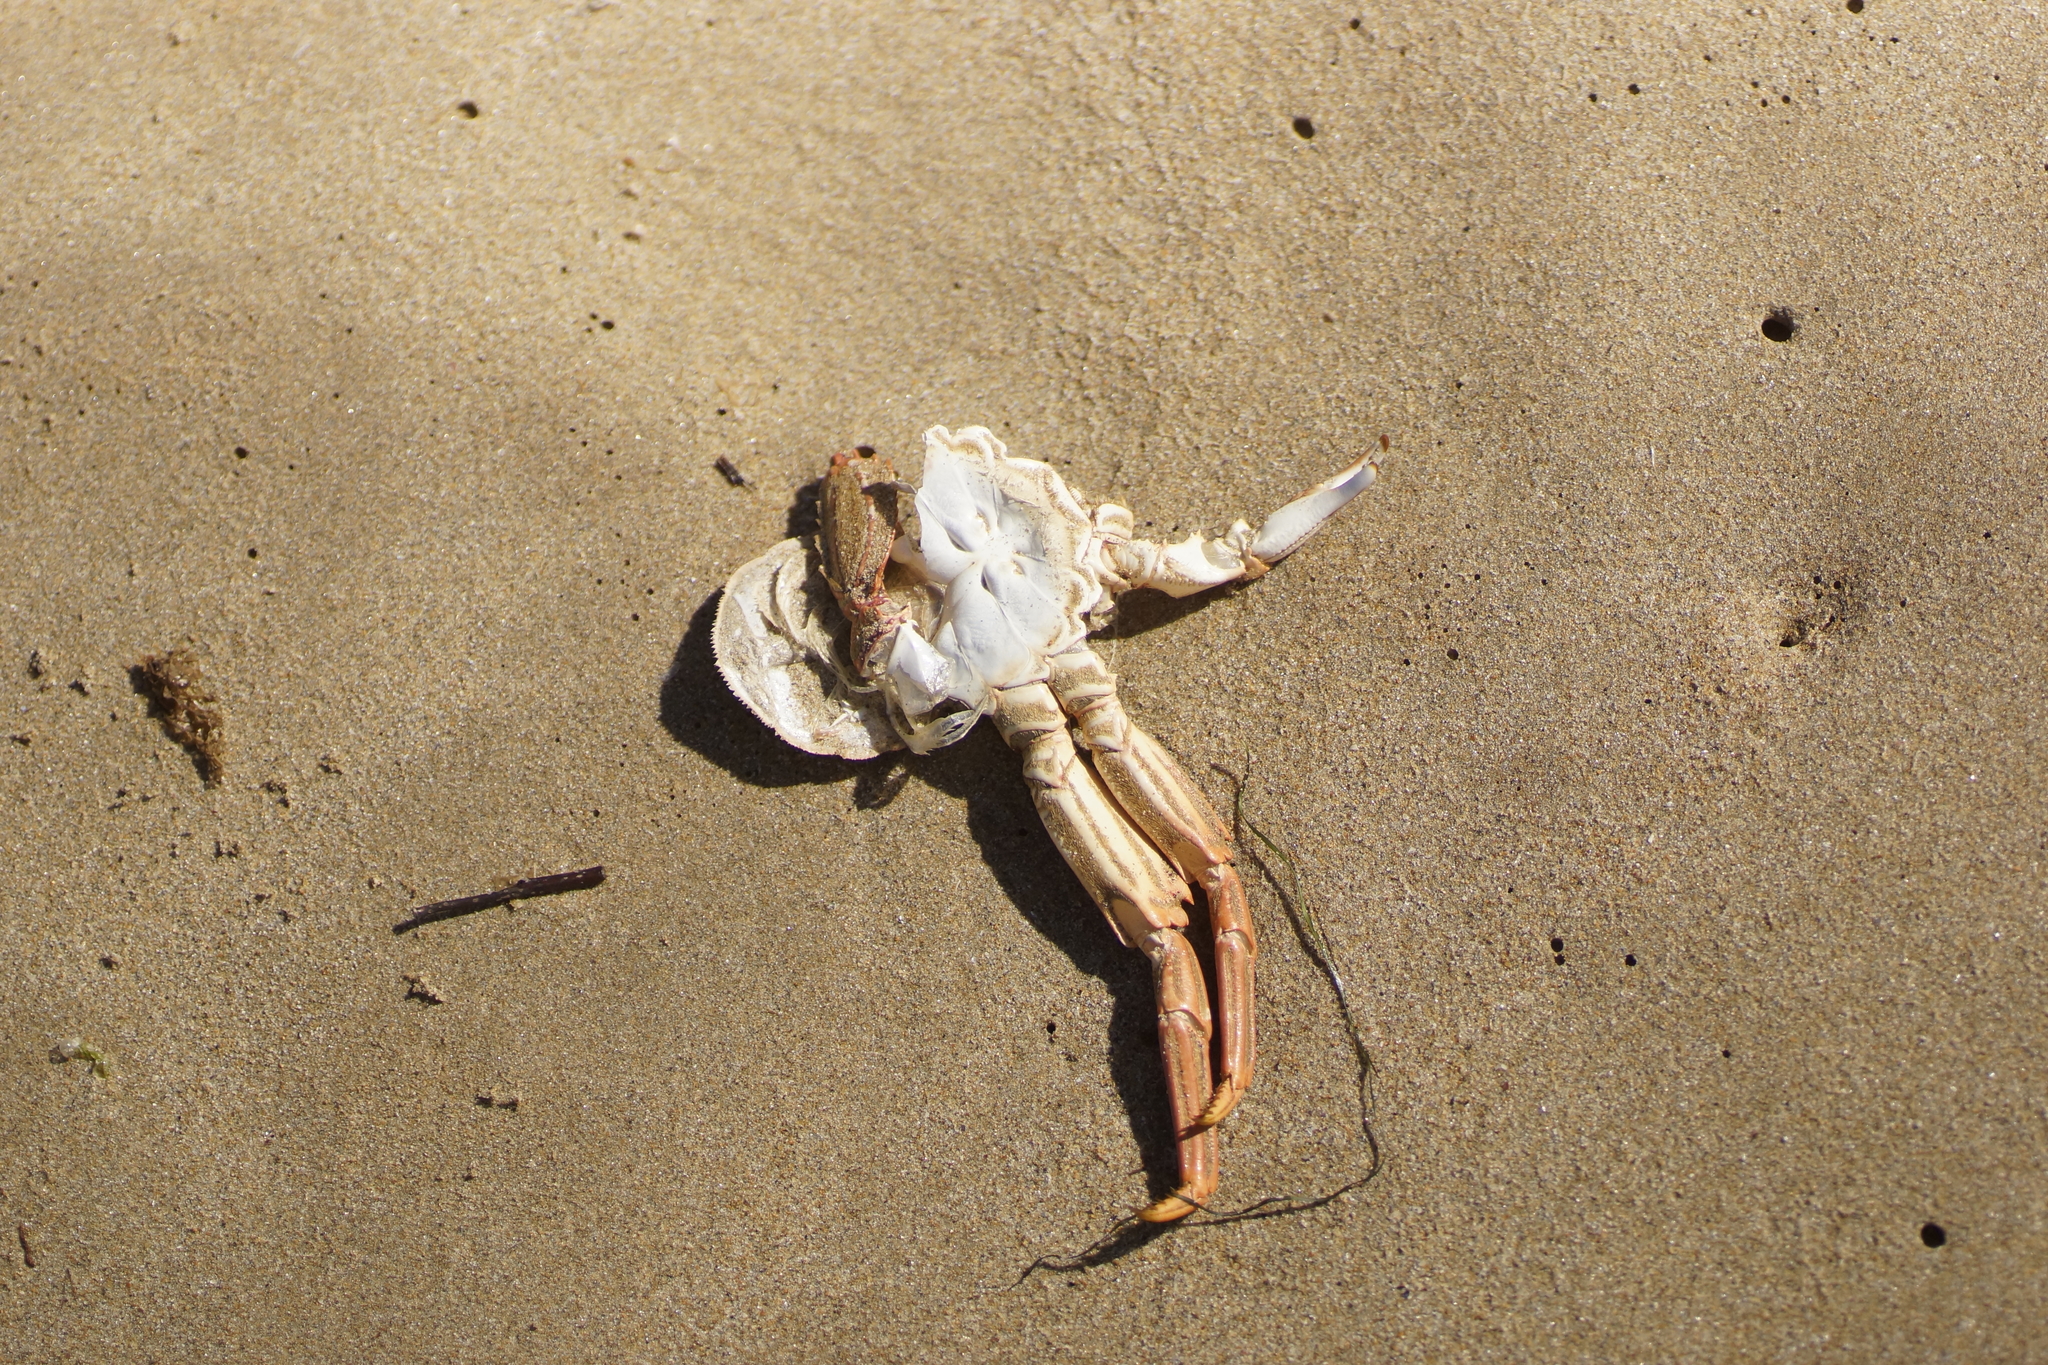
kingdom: Animalia
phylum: Arthropoda
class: Malacostraca
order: Decapoda
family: Plagusiidae
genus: Guinusia
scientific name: Guinusia chabrus
